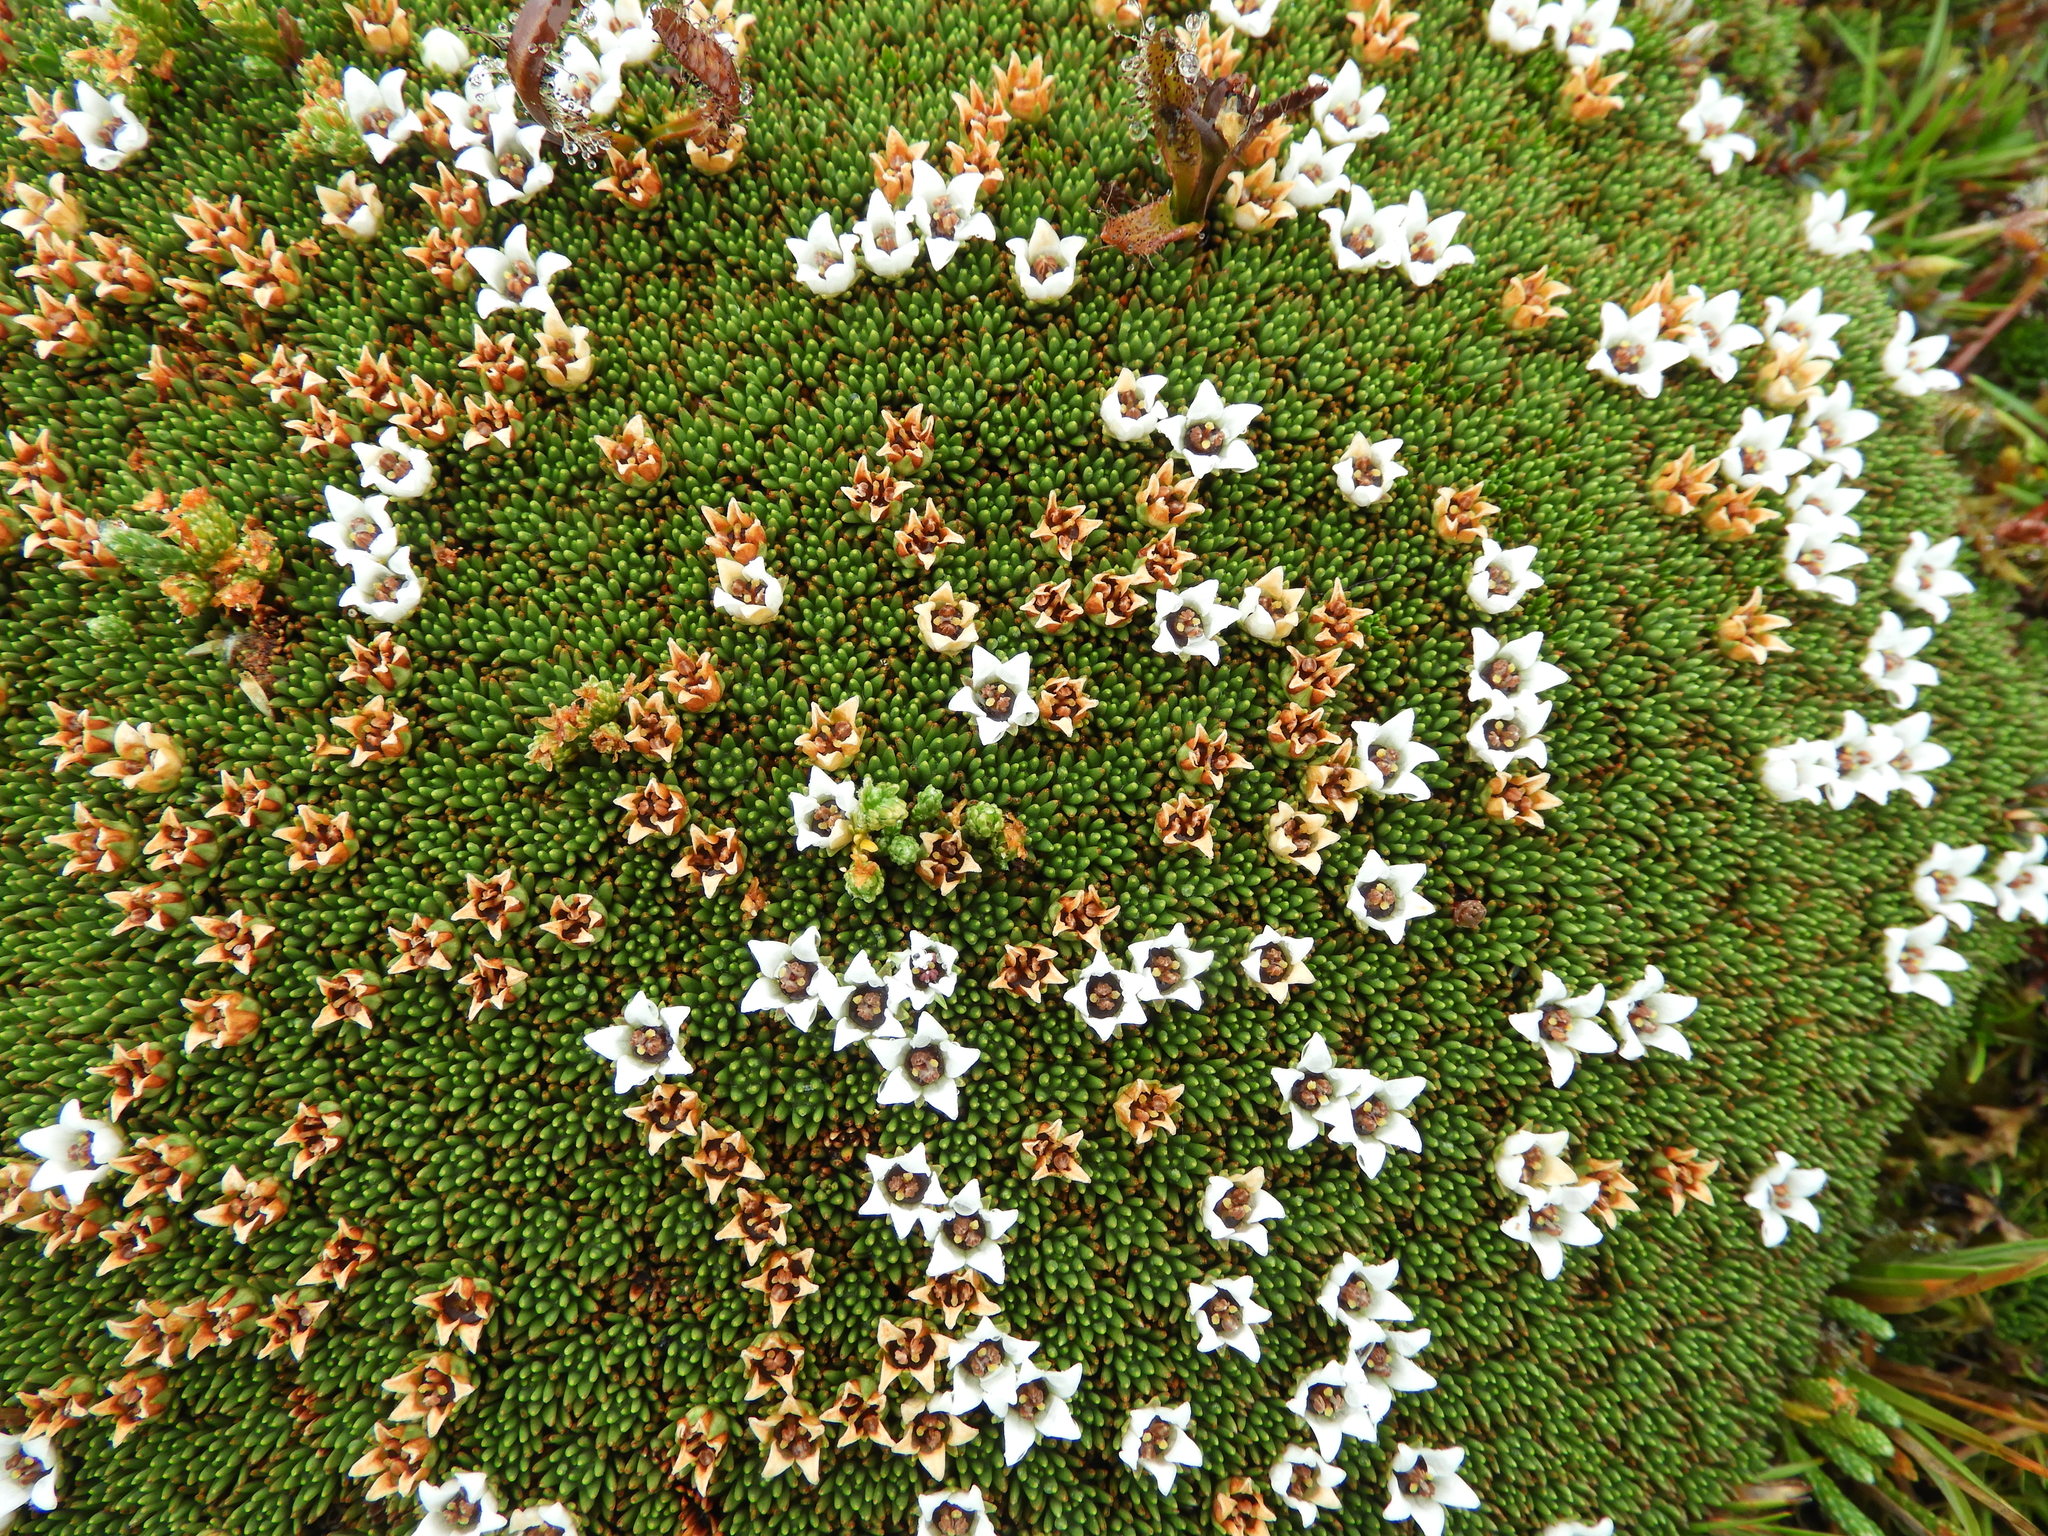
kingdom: Plantae
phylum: Tracheophyta
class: Magnoliopsida
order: Asterales
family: Stylidiaceae
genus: Donatia
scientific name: Donatia novae-zelandiae
